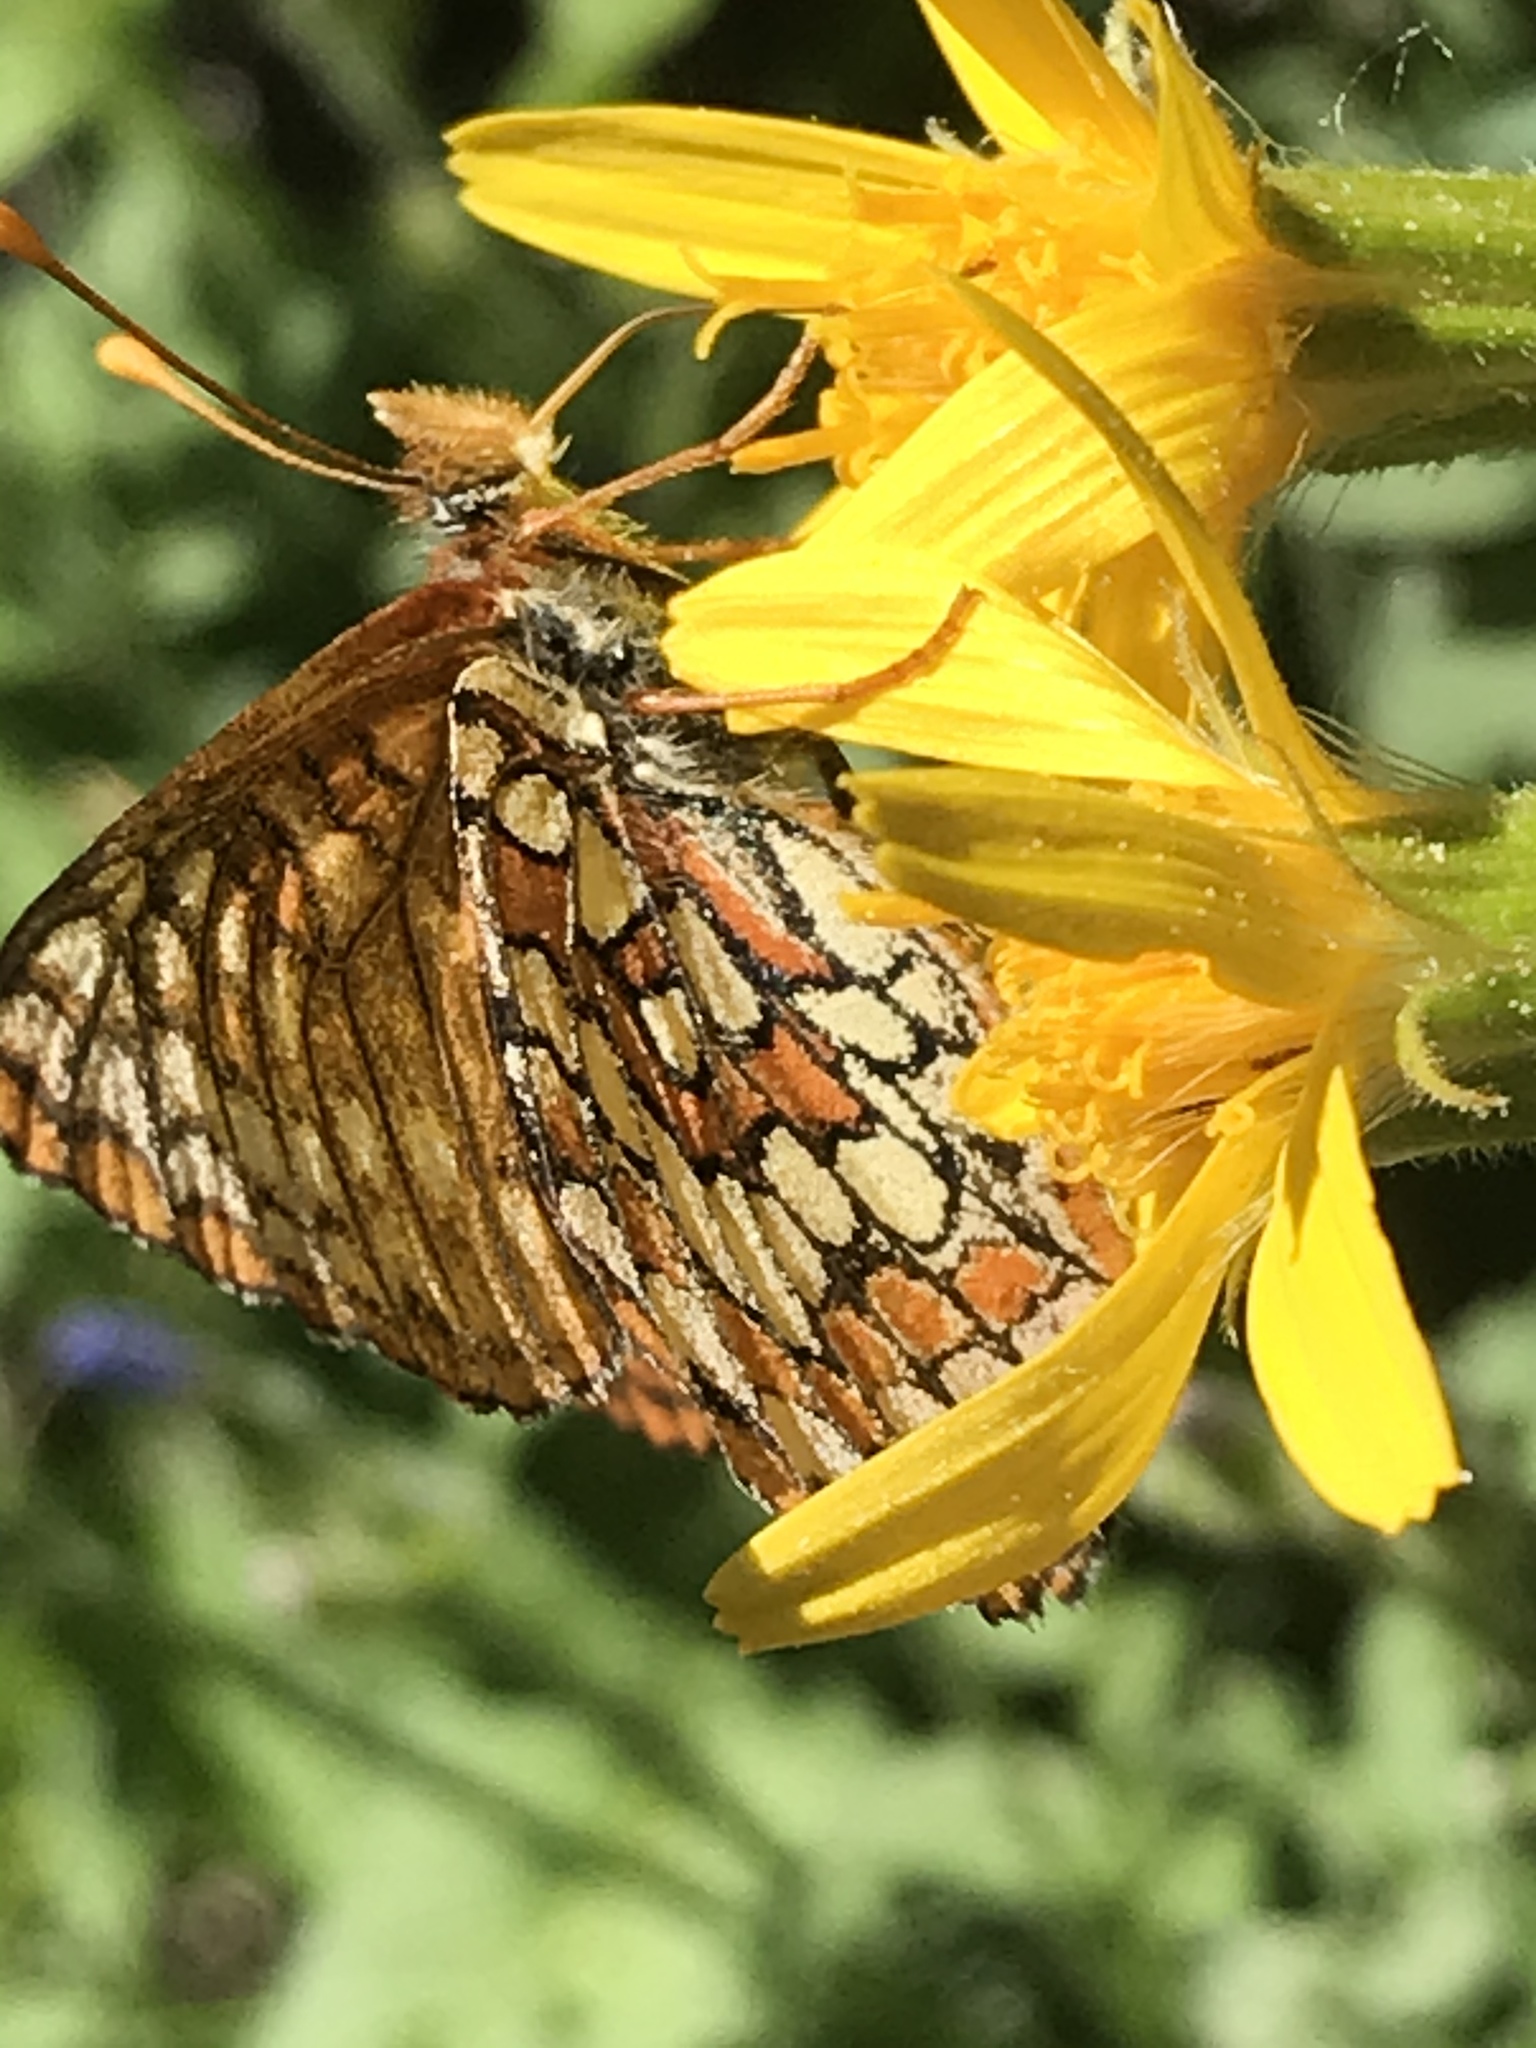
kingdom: Animalia
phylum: Arthropoda
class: Insecta
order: Lepidoptera
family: Nymphalidae
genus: Occidryas
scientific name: Occidryas anicia
